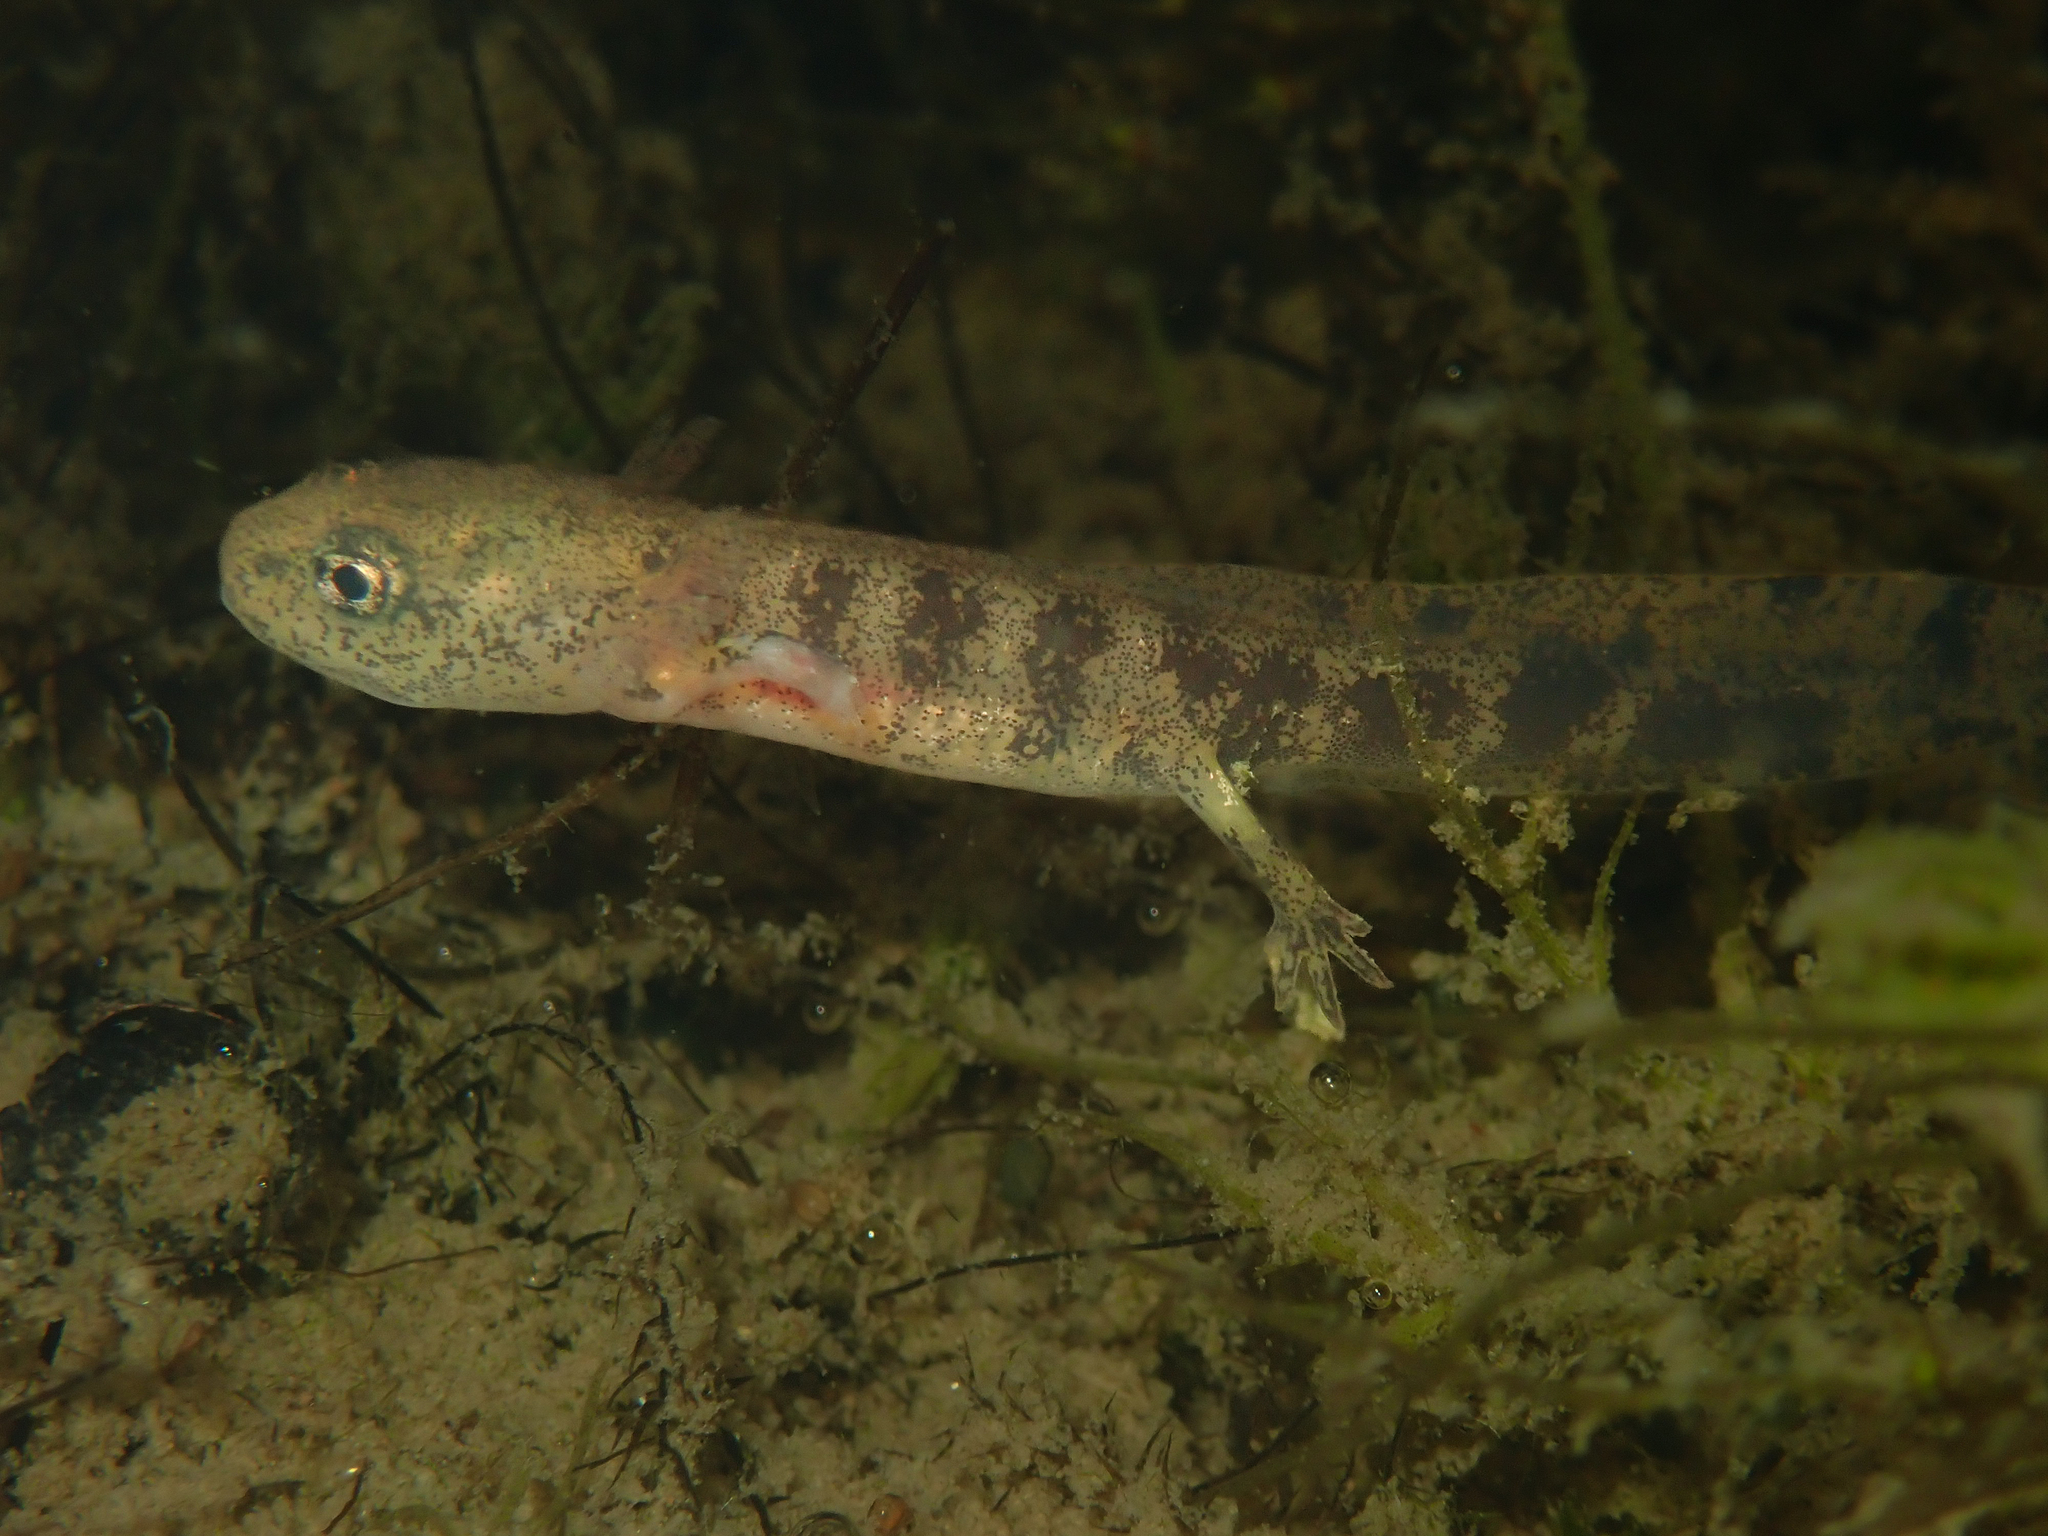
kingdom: Animalia
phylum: Chordata
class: Amphibia
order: Caudata
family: Salamandridae
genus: Salamandra
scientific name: Salamandra salamandra
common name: Fire salamander
